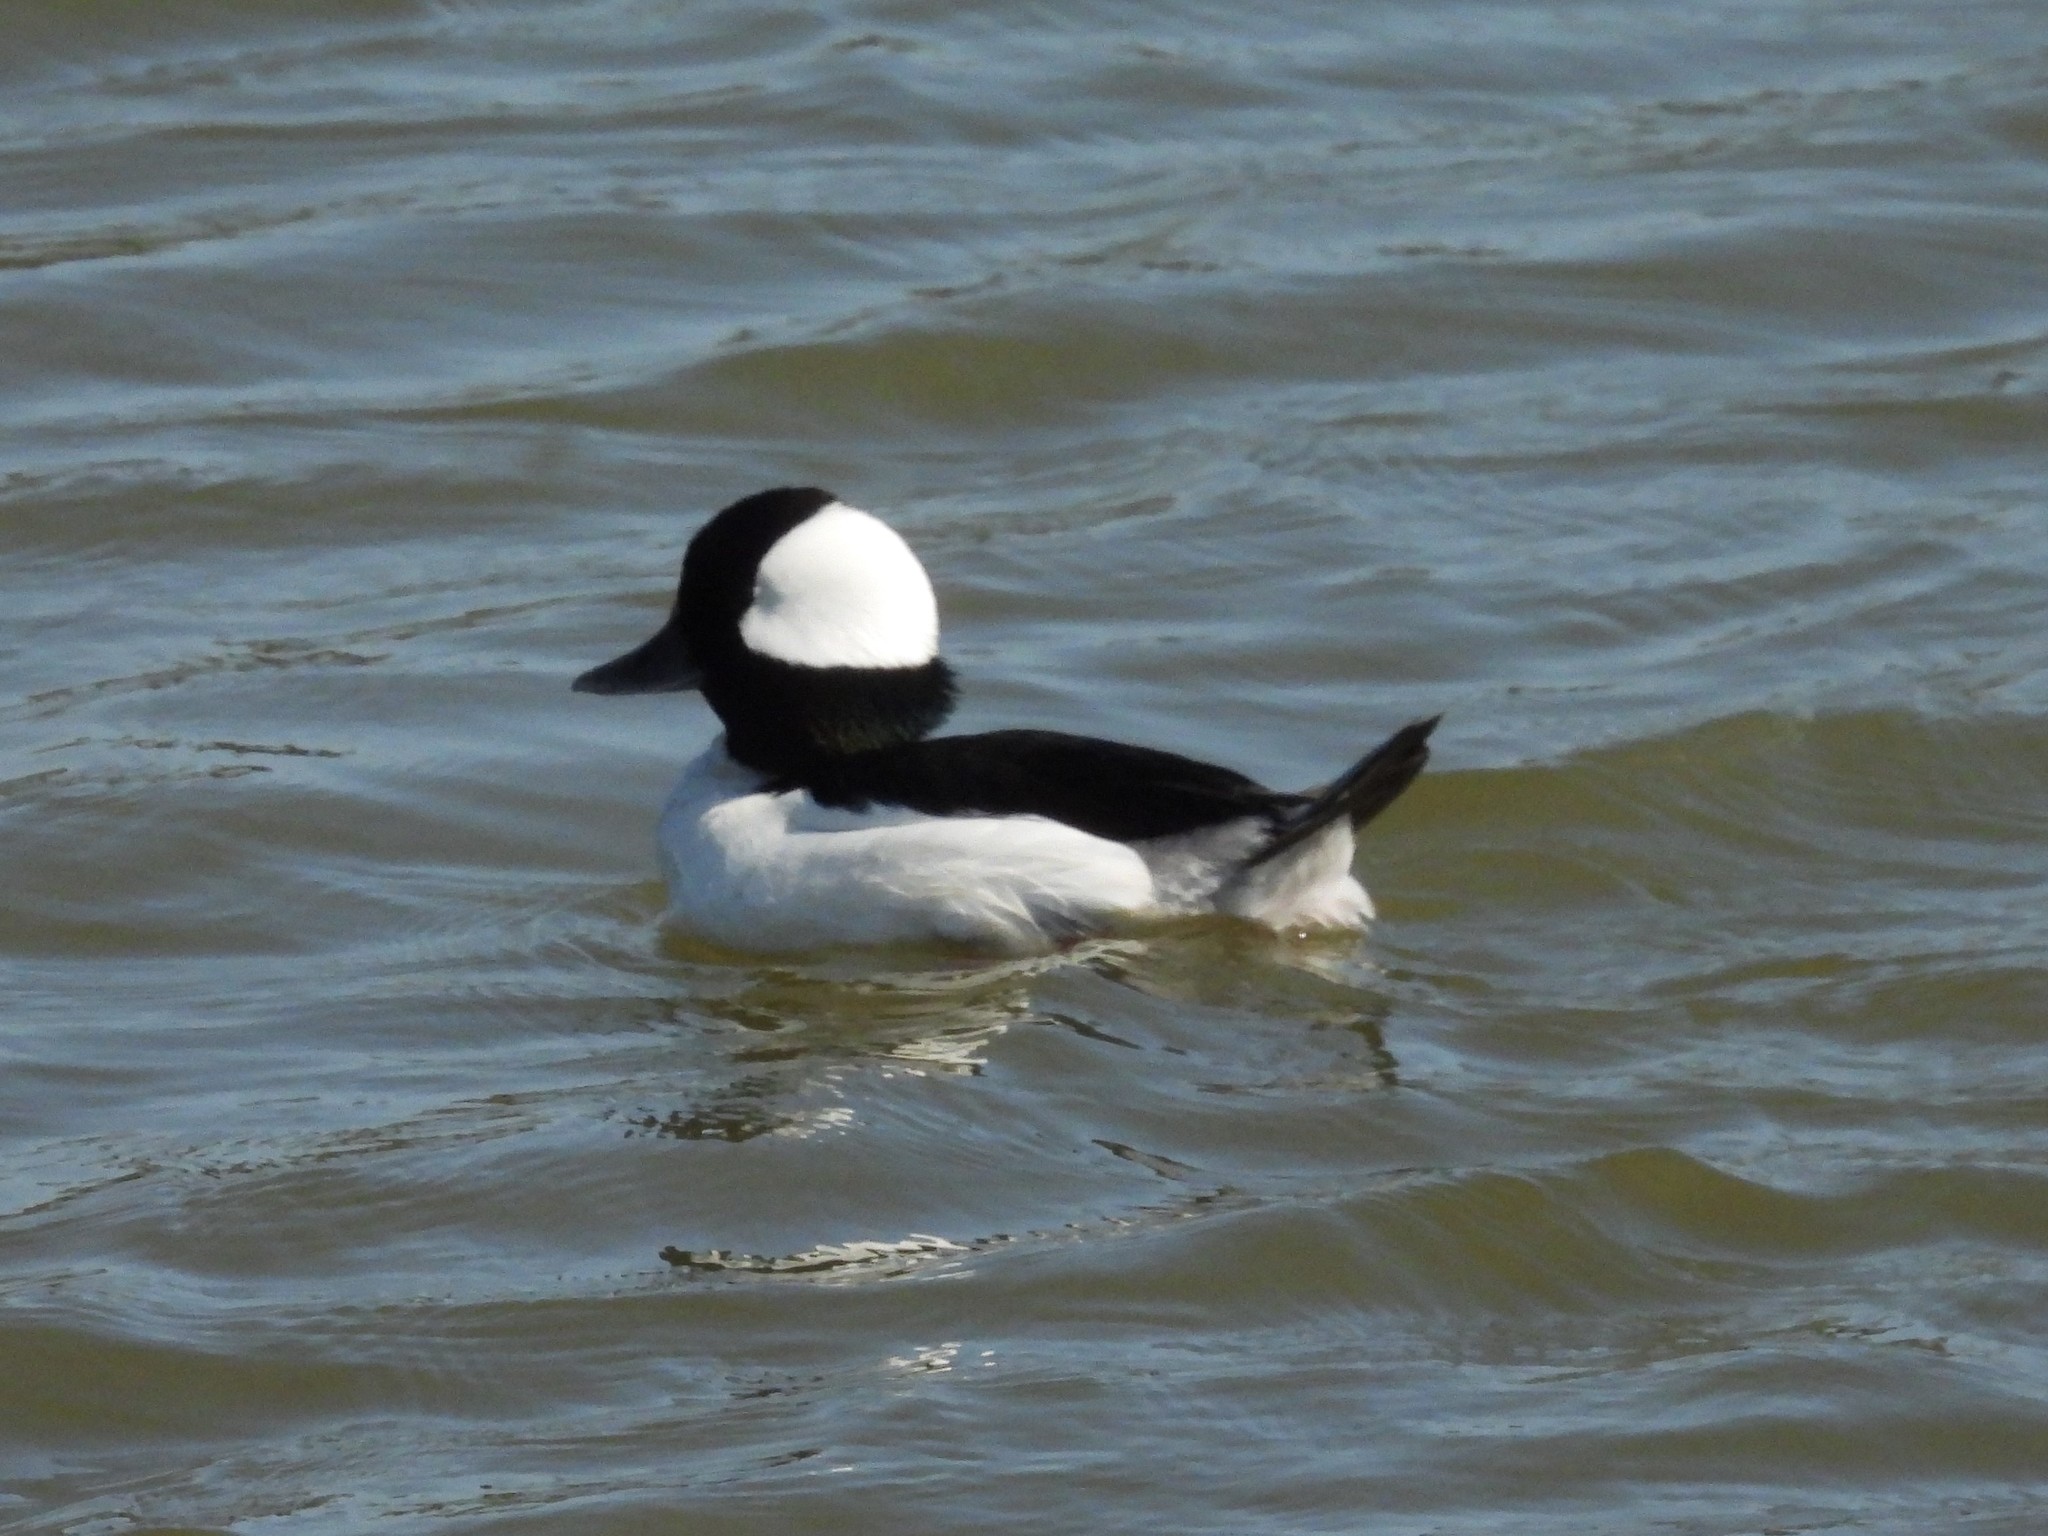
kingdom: Animalia
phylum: Chordata
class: Aves
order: Anseriformes
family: Anatidae
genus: Bucephala
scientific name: Bucephala albeola
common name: Bufflehead
